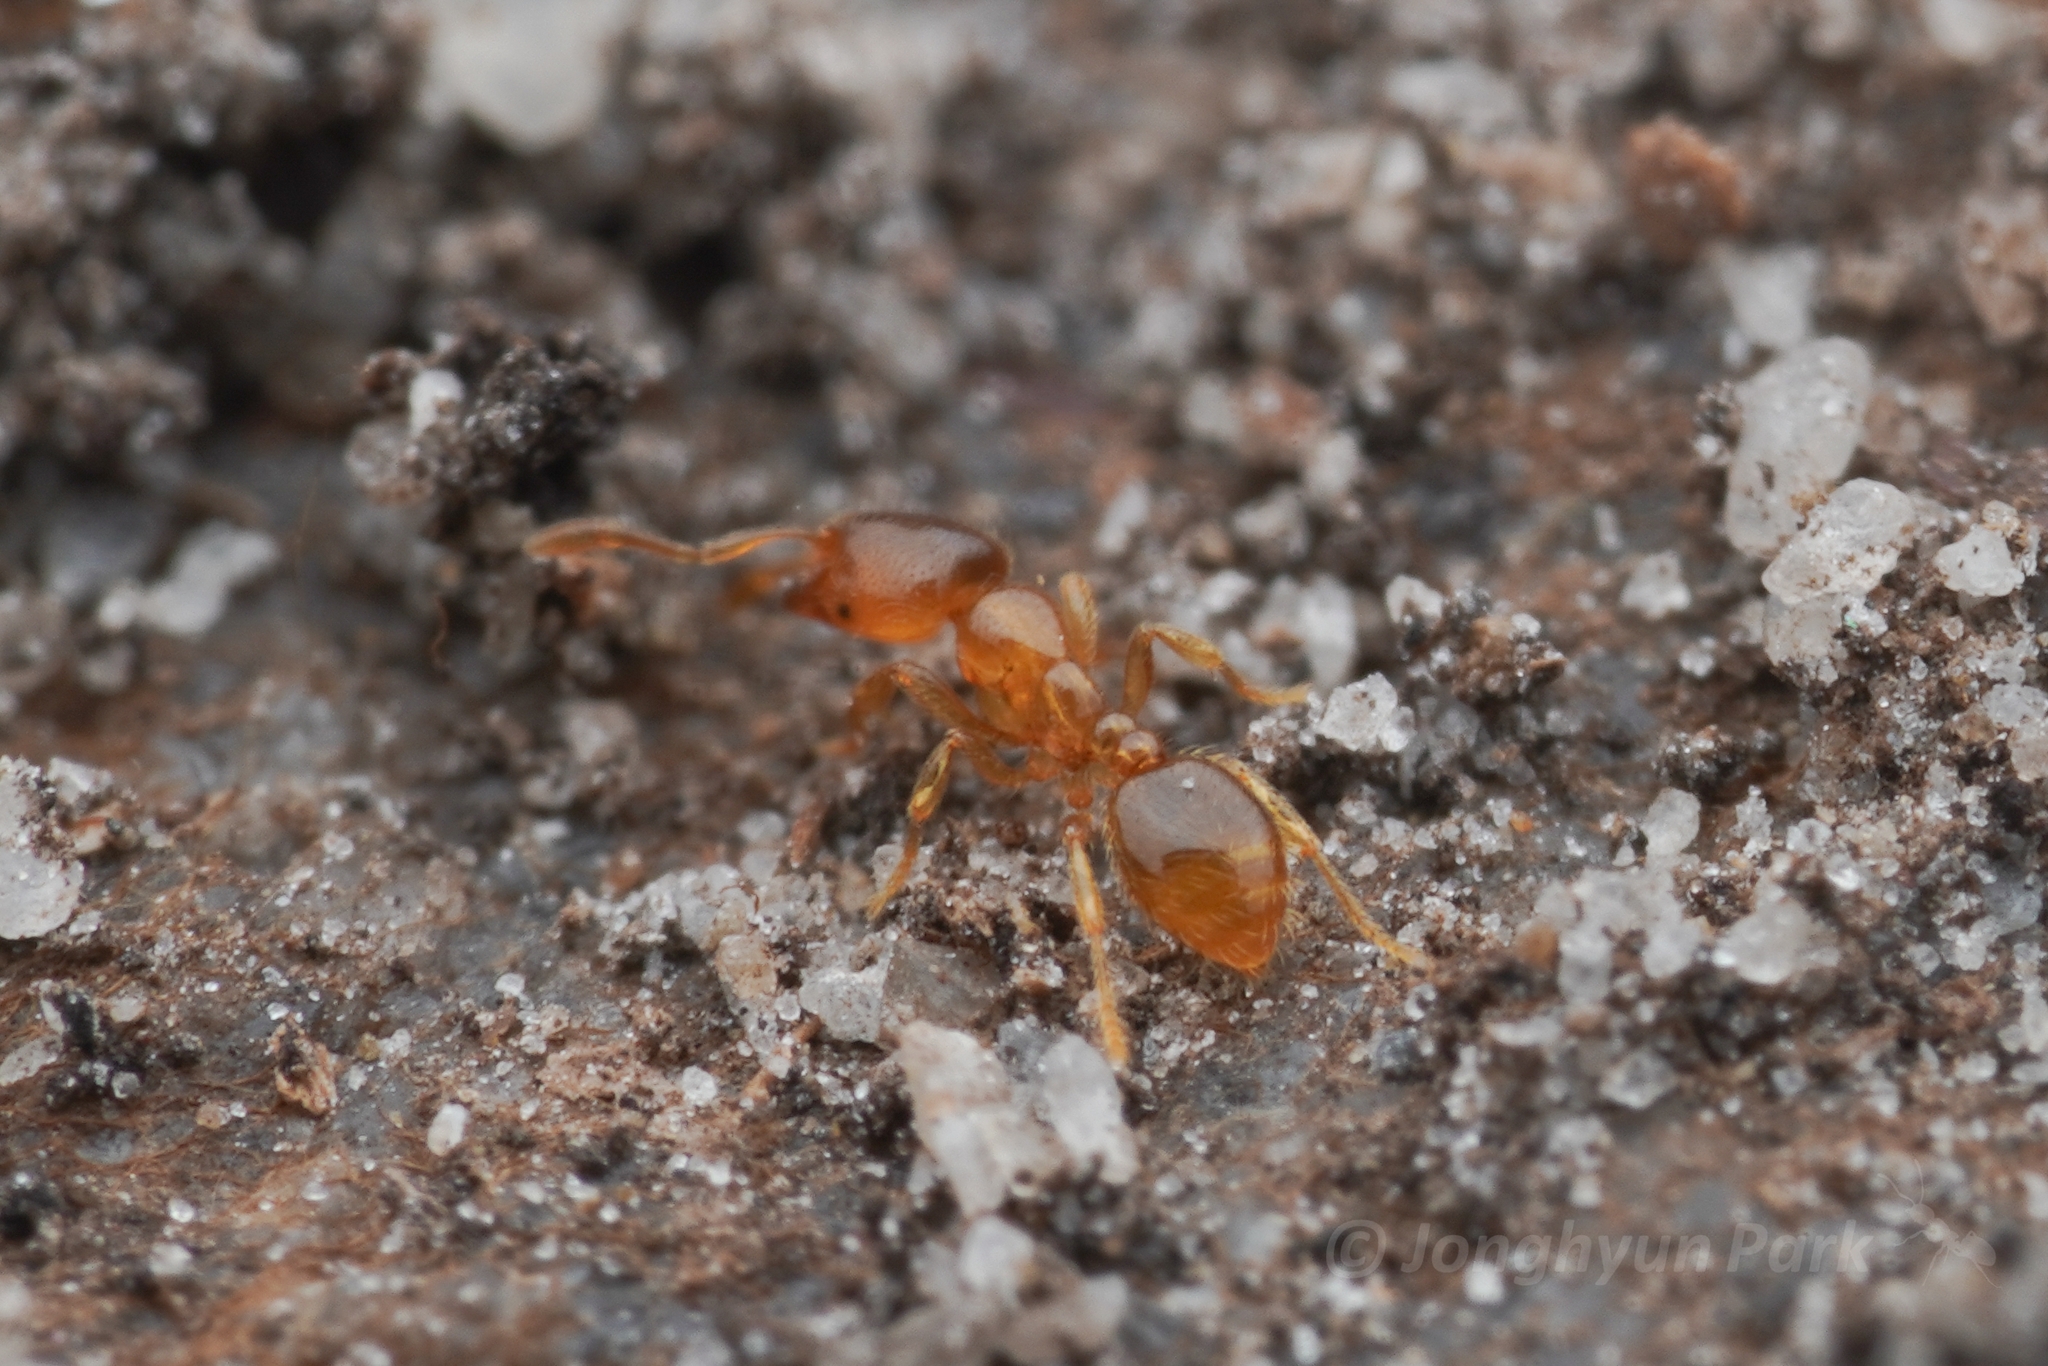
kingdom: Animalia
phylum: Arthropoda
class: Insecta
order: Hymenoptera
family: Formicidae
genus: Solenopsis
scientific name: Solenopsis punctaticeps
